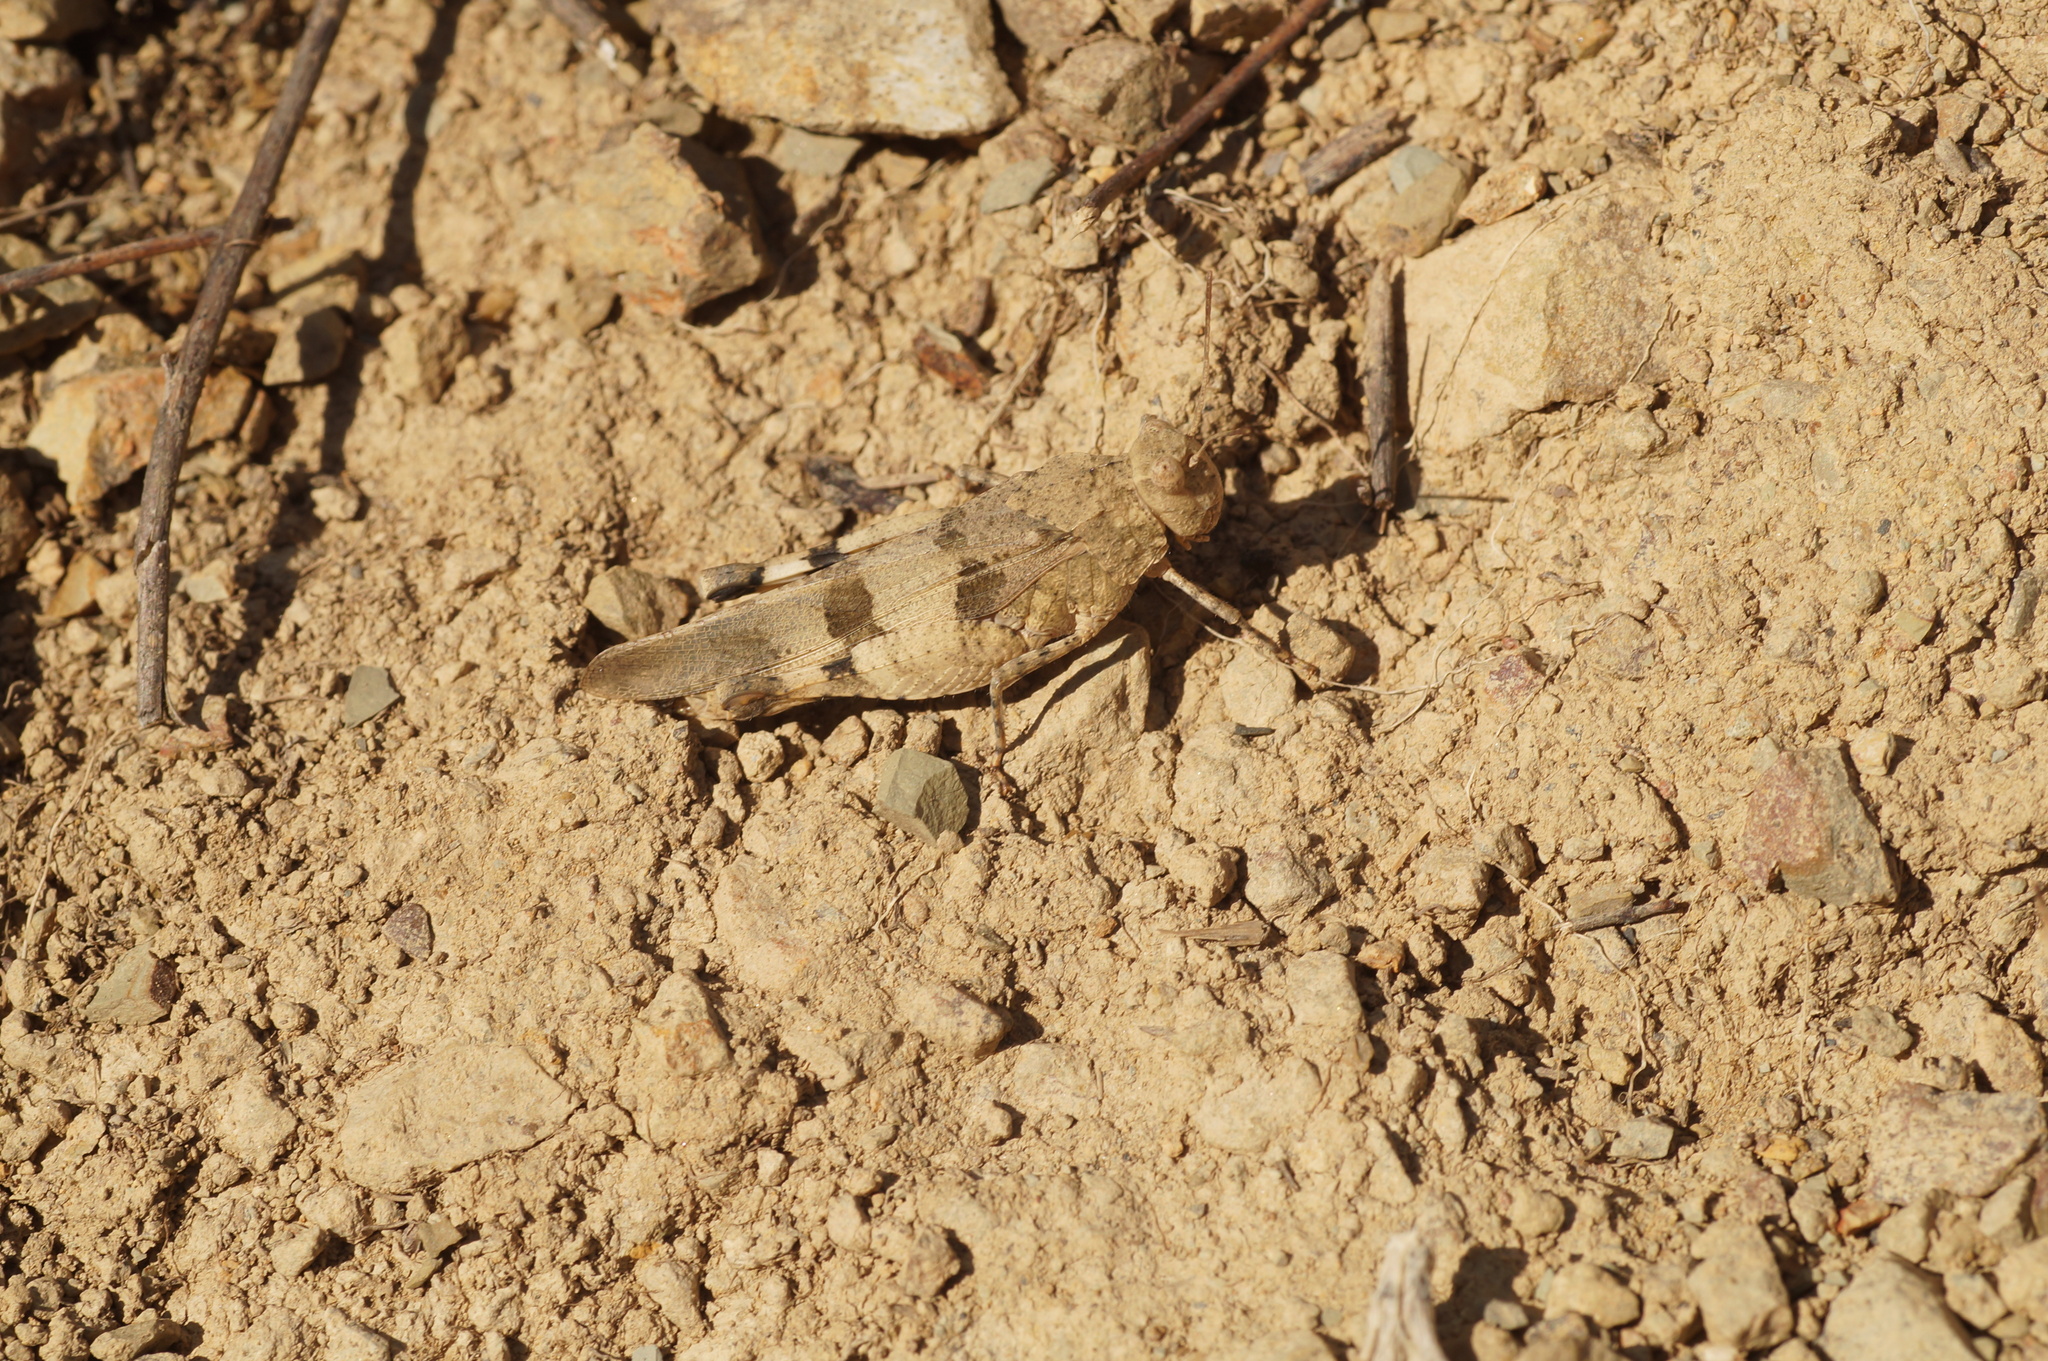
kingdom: Animalia
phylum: Arthropoda
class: Insecta
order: Orthoptera
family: Acrididae
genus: Oedipoda
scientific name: Oedipoda caerulescens
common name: Blue-winged grasshopper
